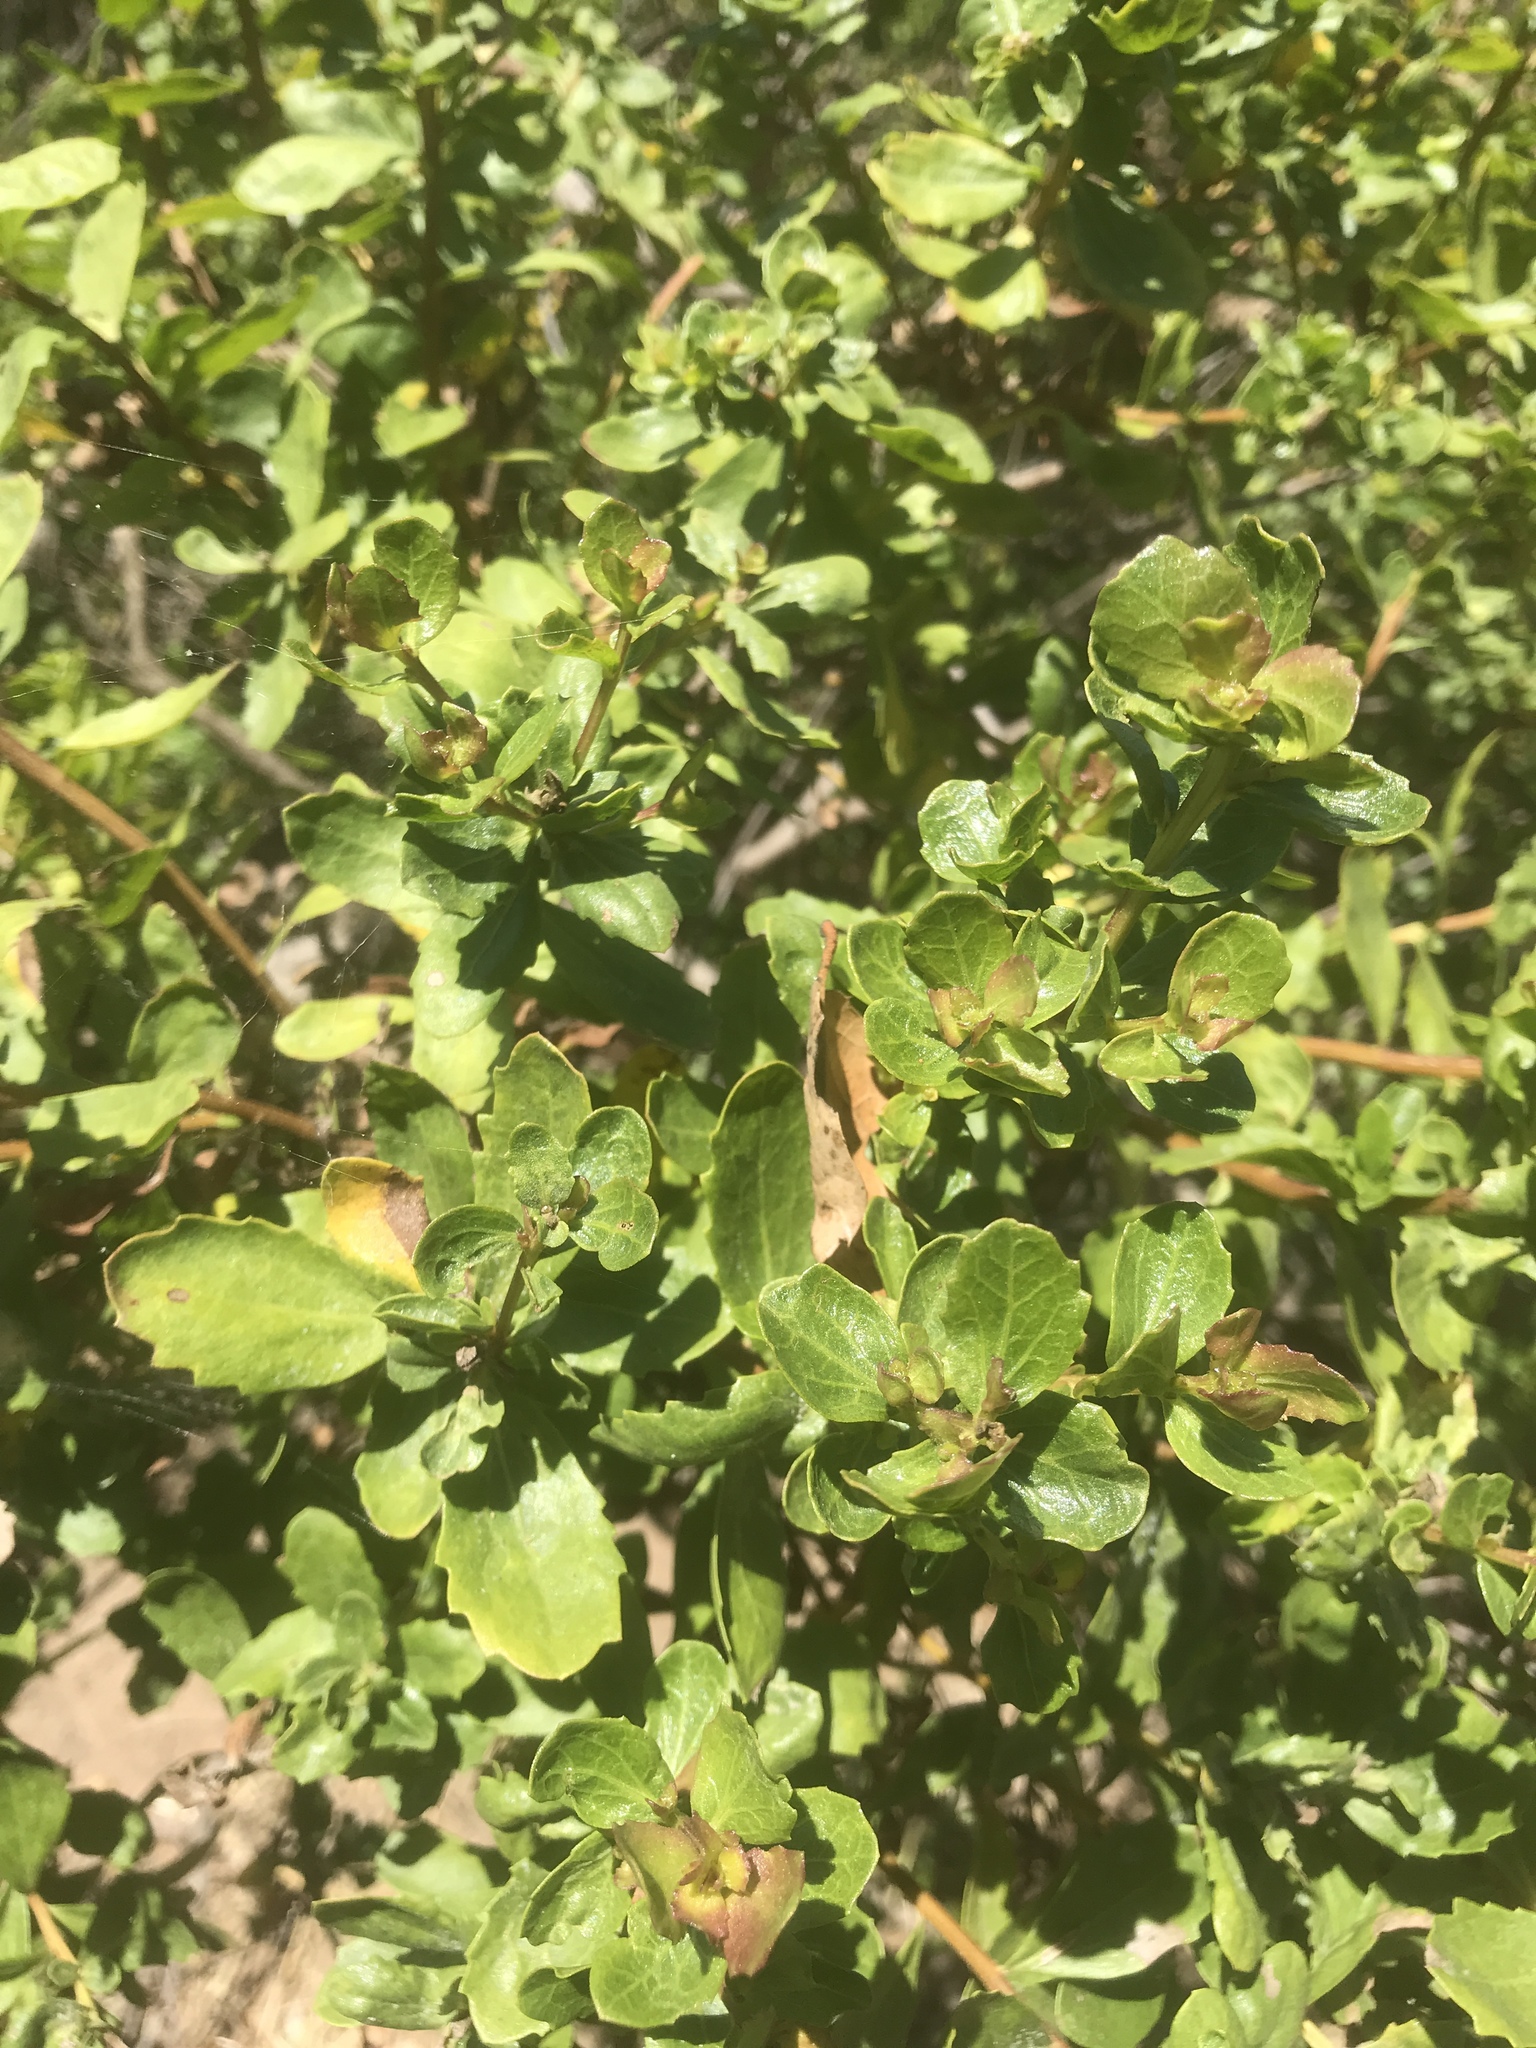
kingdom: Plantae
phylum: Tracheophyta
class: Magnoliopsida
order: Asterales
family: Asteraceae
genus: Baccharis
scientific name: Baccharis pilularis
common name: Coyotebrush
